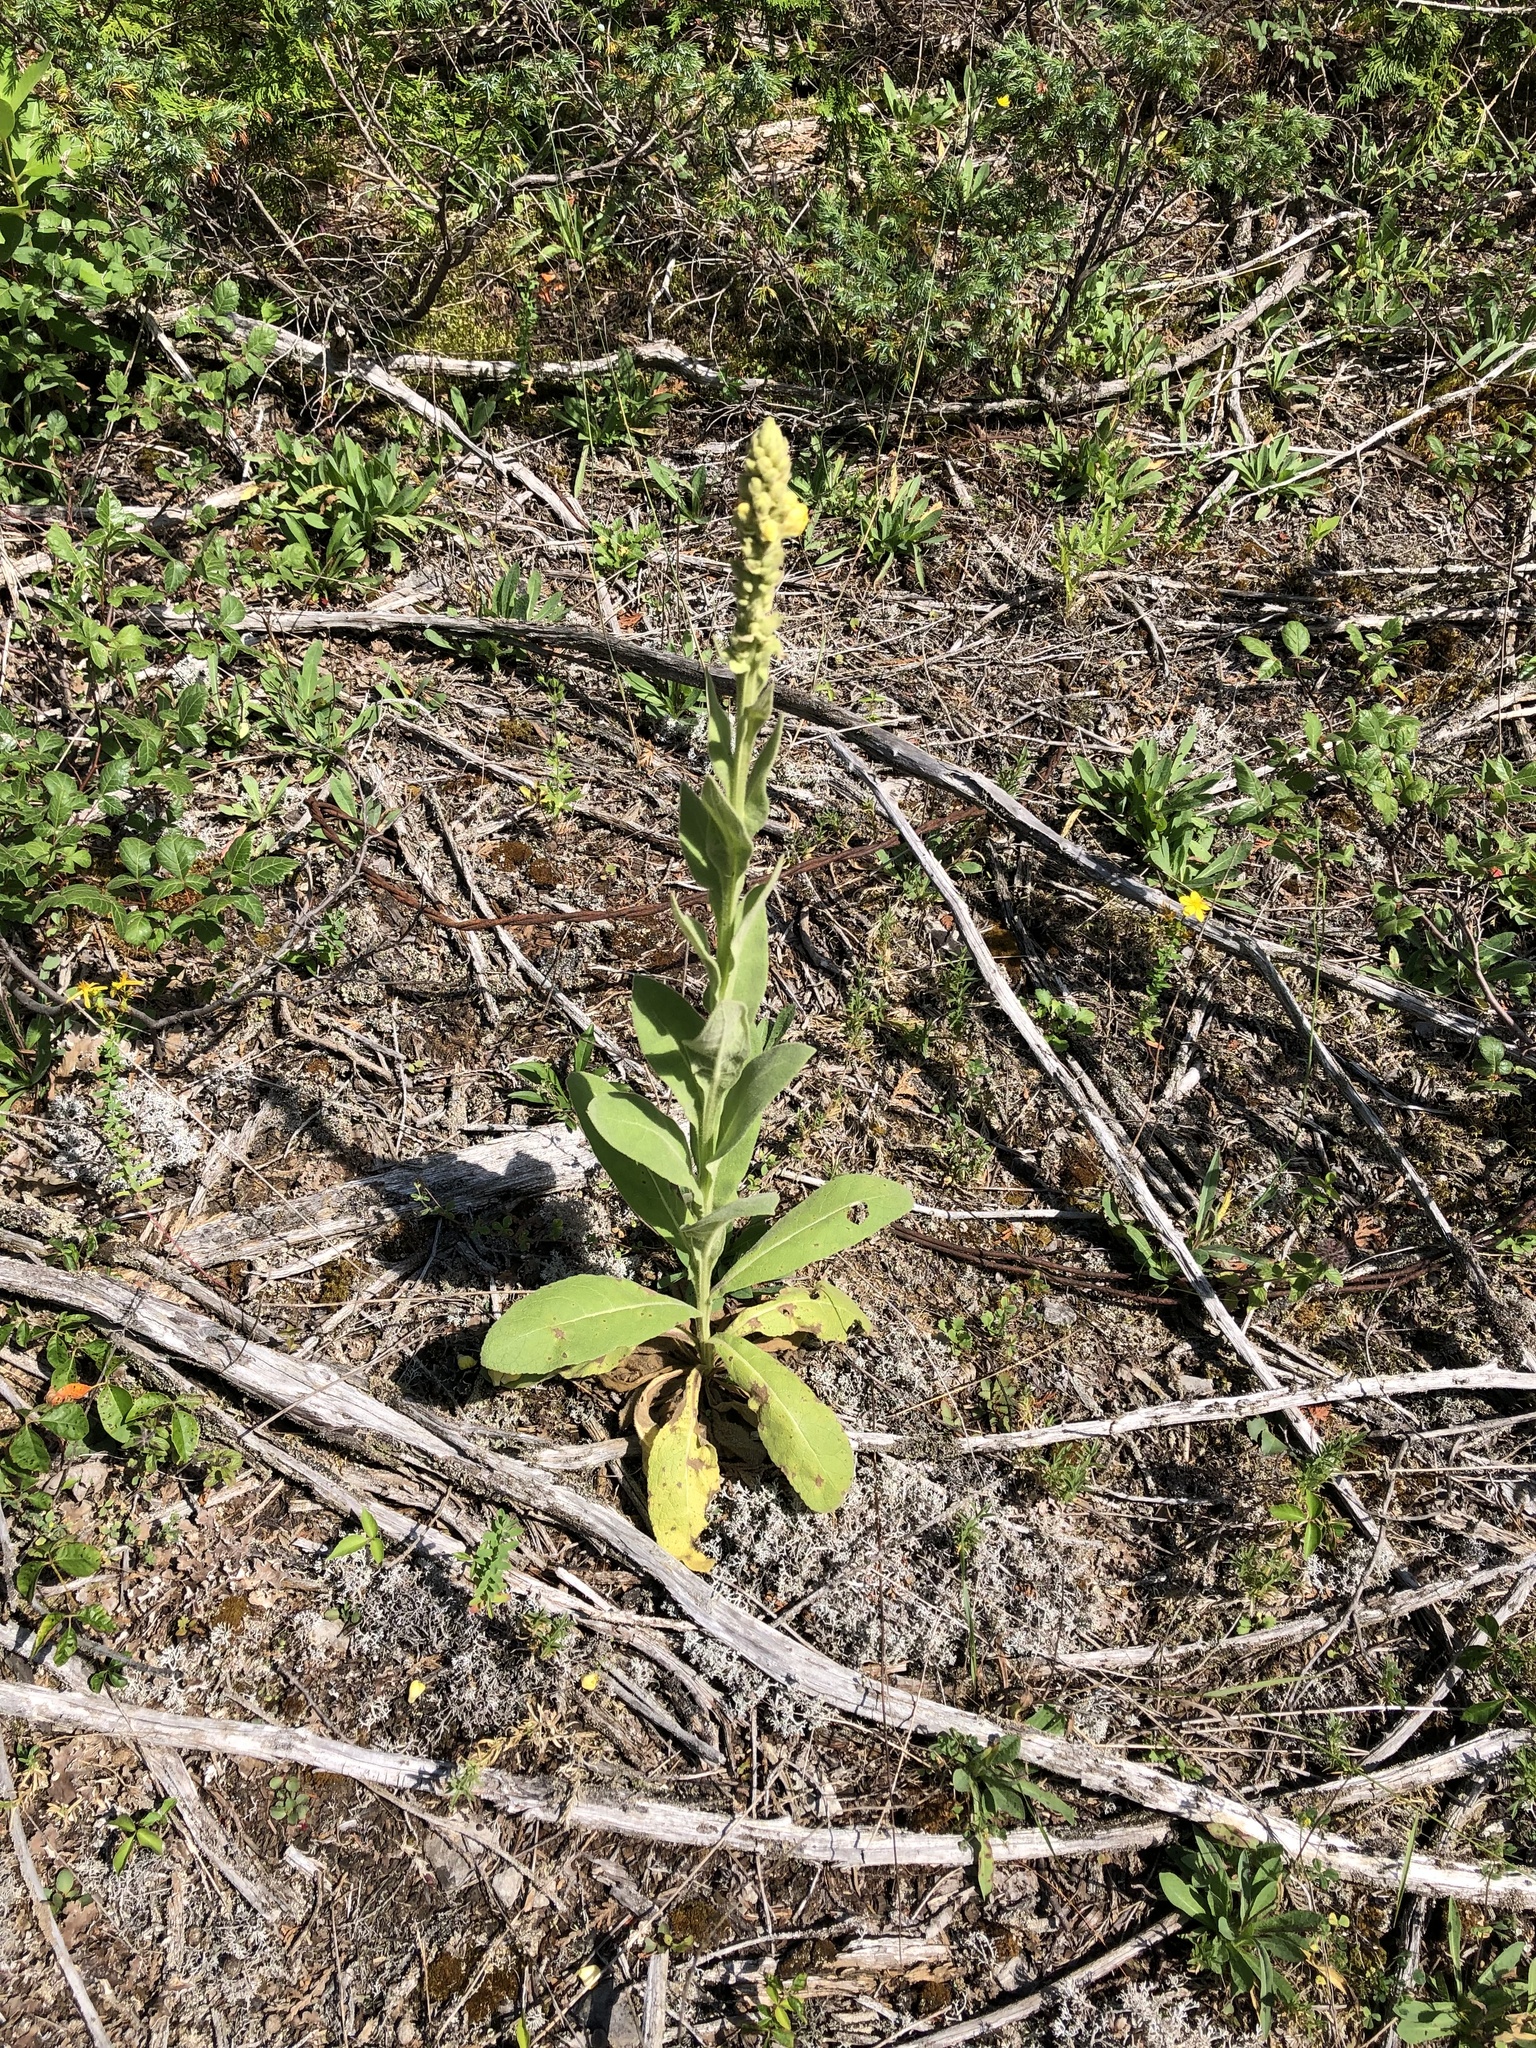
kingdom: Plantae
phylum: Tracheophyta
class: Magnoliopsida
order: Lamiales
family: Scrophulariaceae
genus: Verbascum
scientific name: Verbascum thapsus
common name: Common mullein
